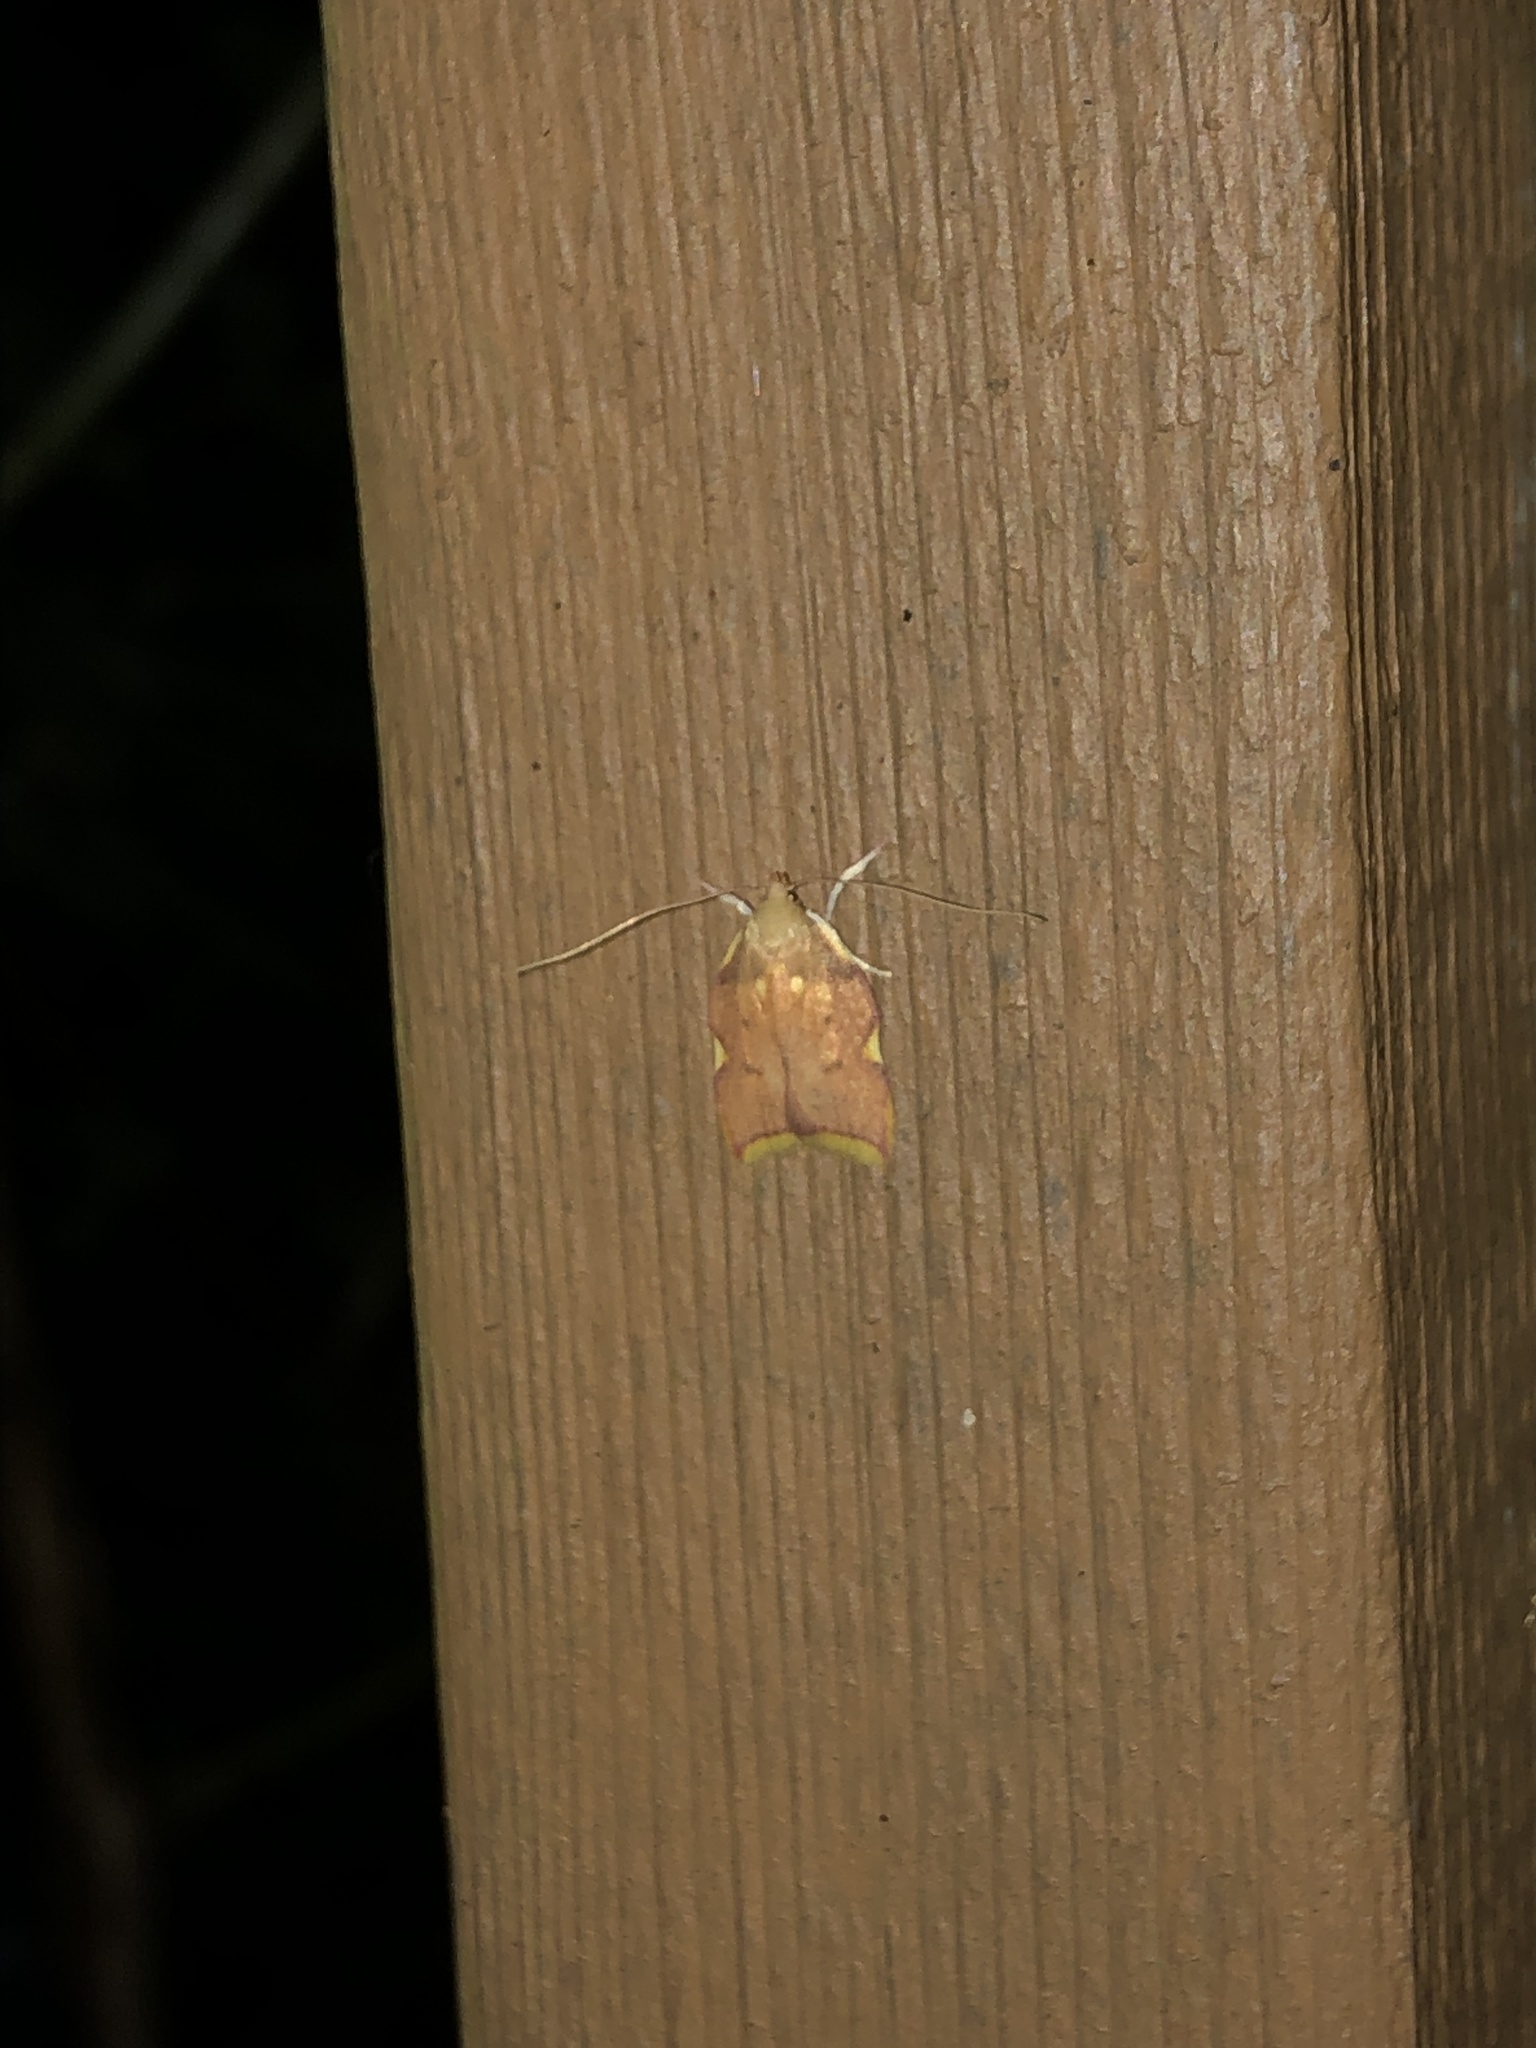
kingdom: Animalia
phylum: Arthropoda
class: Insecta
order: Lepidoptera
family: Peleopodidae
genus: Carcina
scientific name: Carcina quercana
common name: Moth
